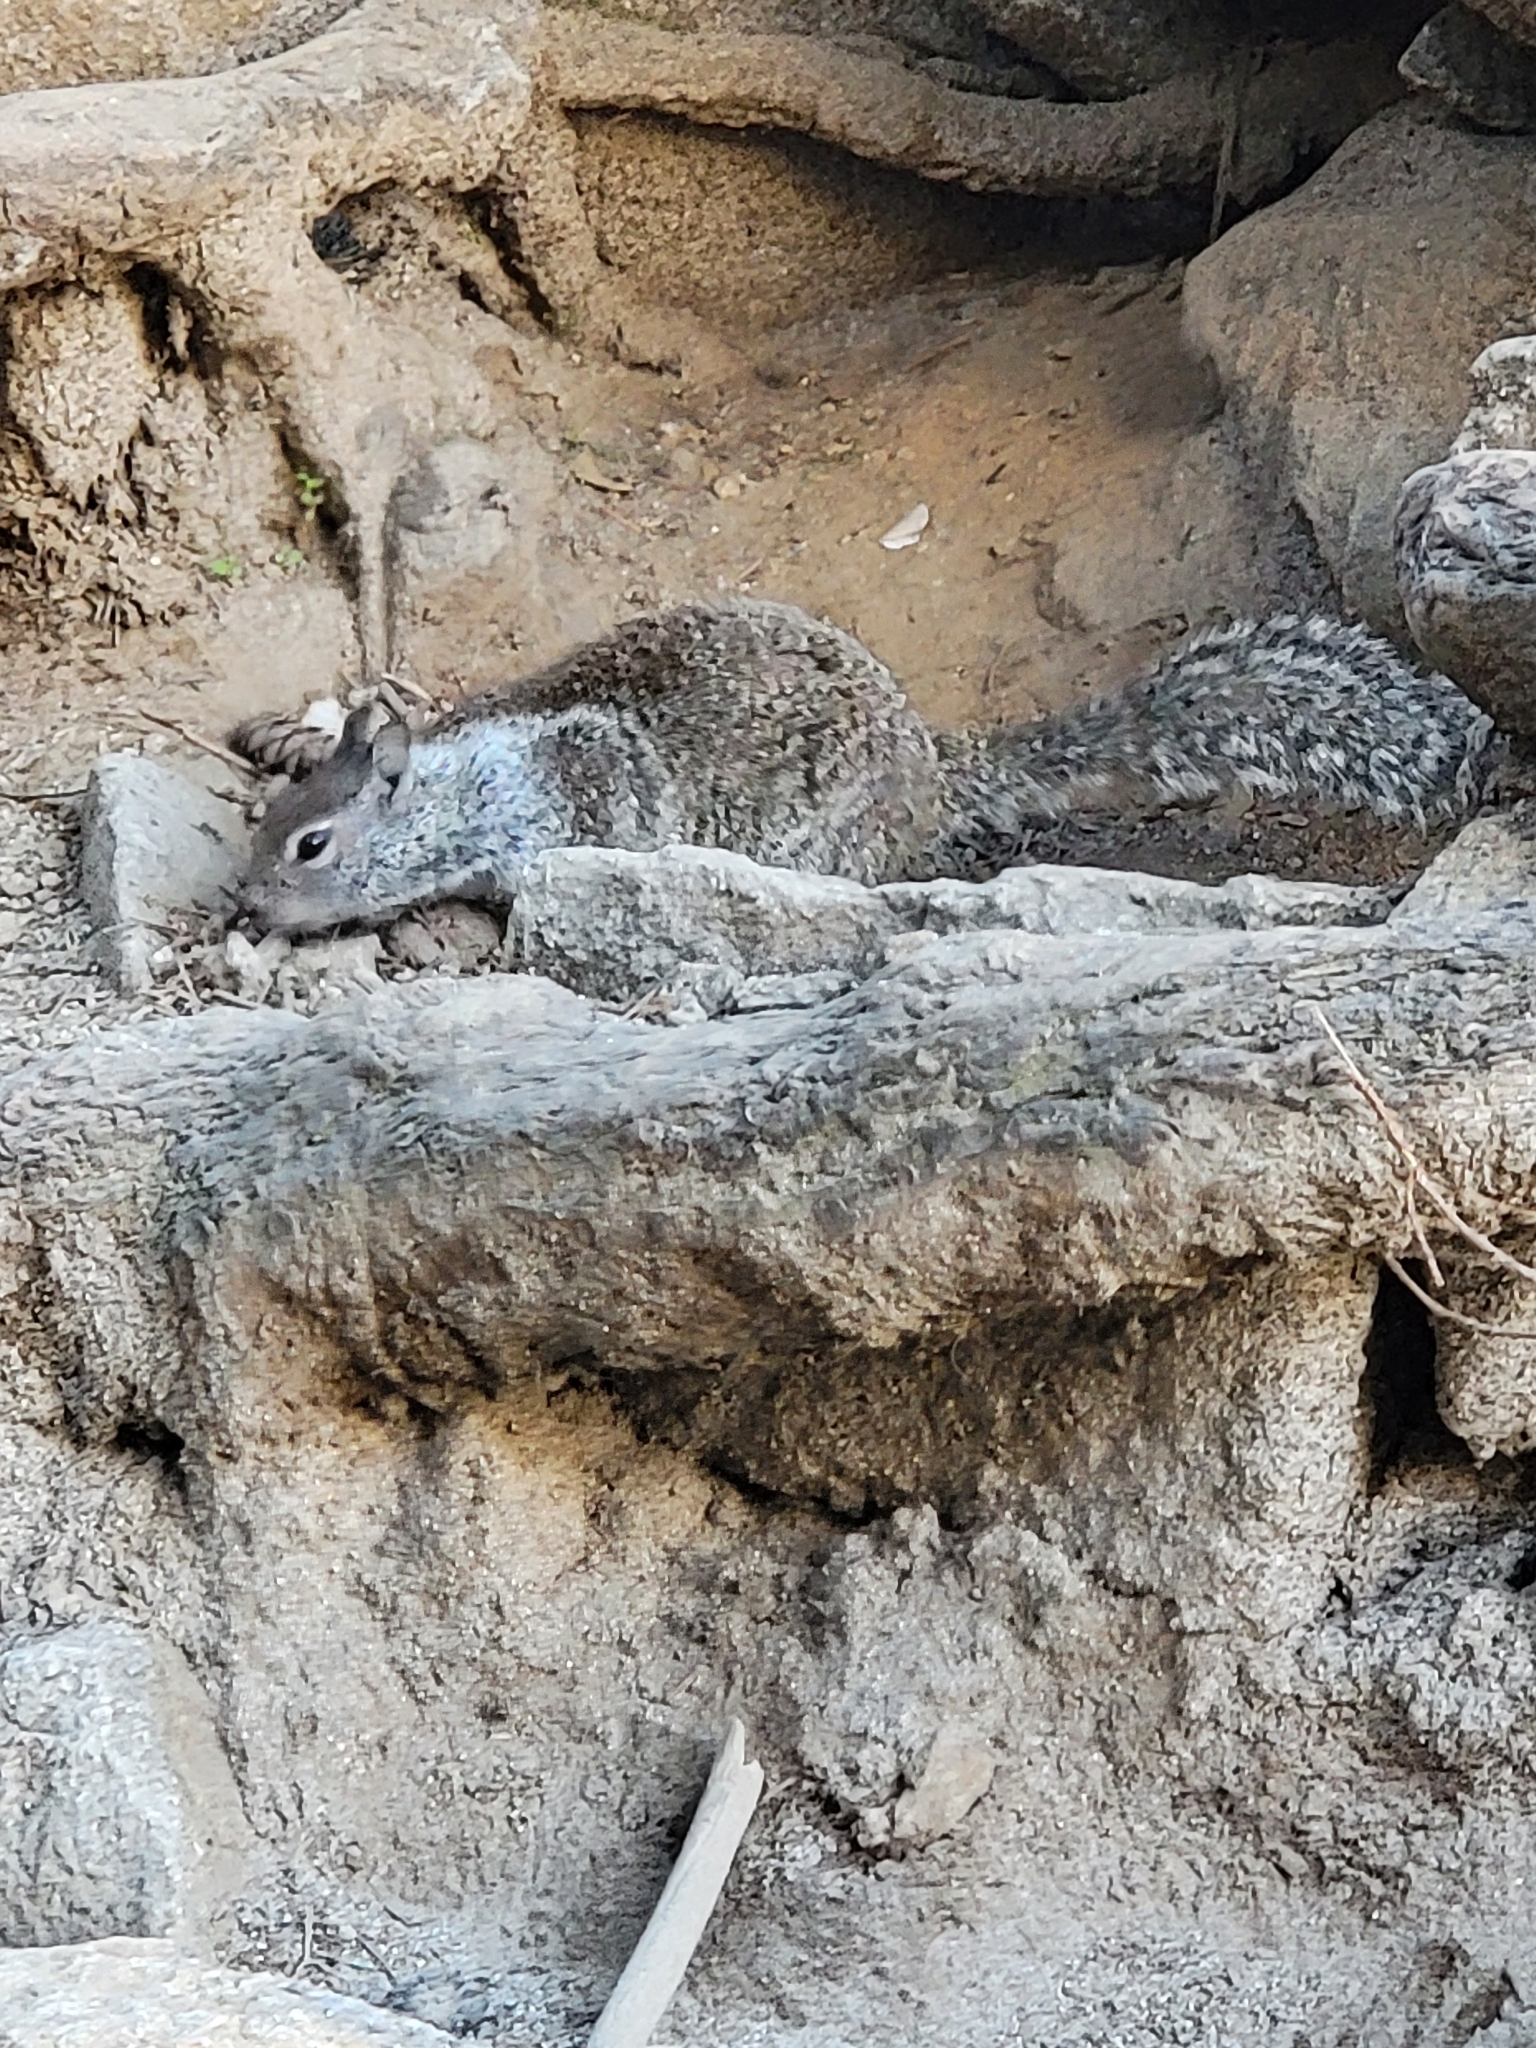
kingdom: Animalia
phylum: Chordata
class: Mammalia
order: Rodentia
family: Sciuridae
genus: Otospermophilus
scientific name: Otospermophilus beecheyi
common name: California ground squirrel
